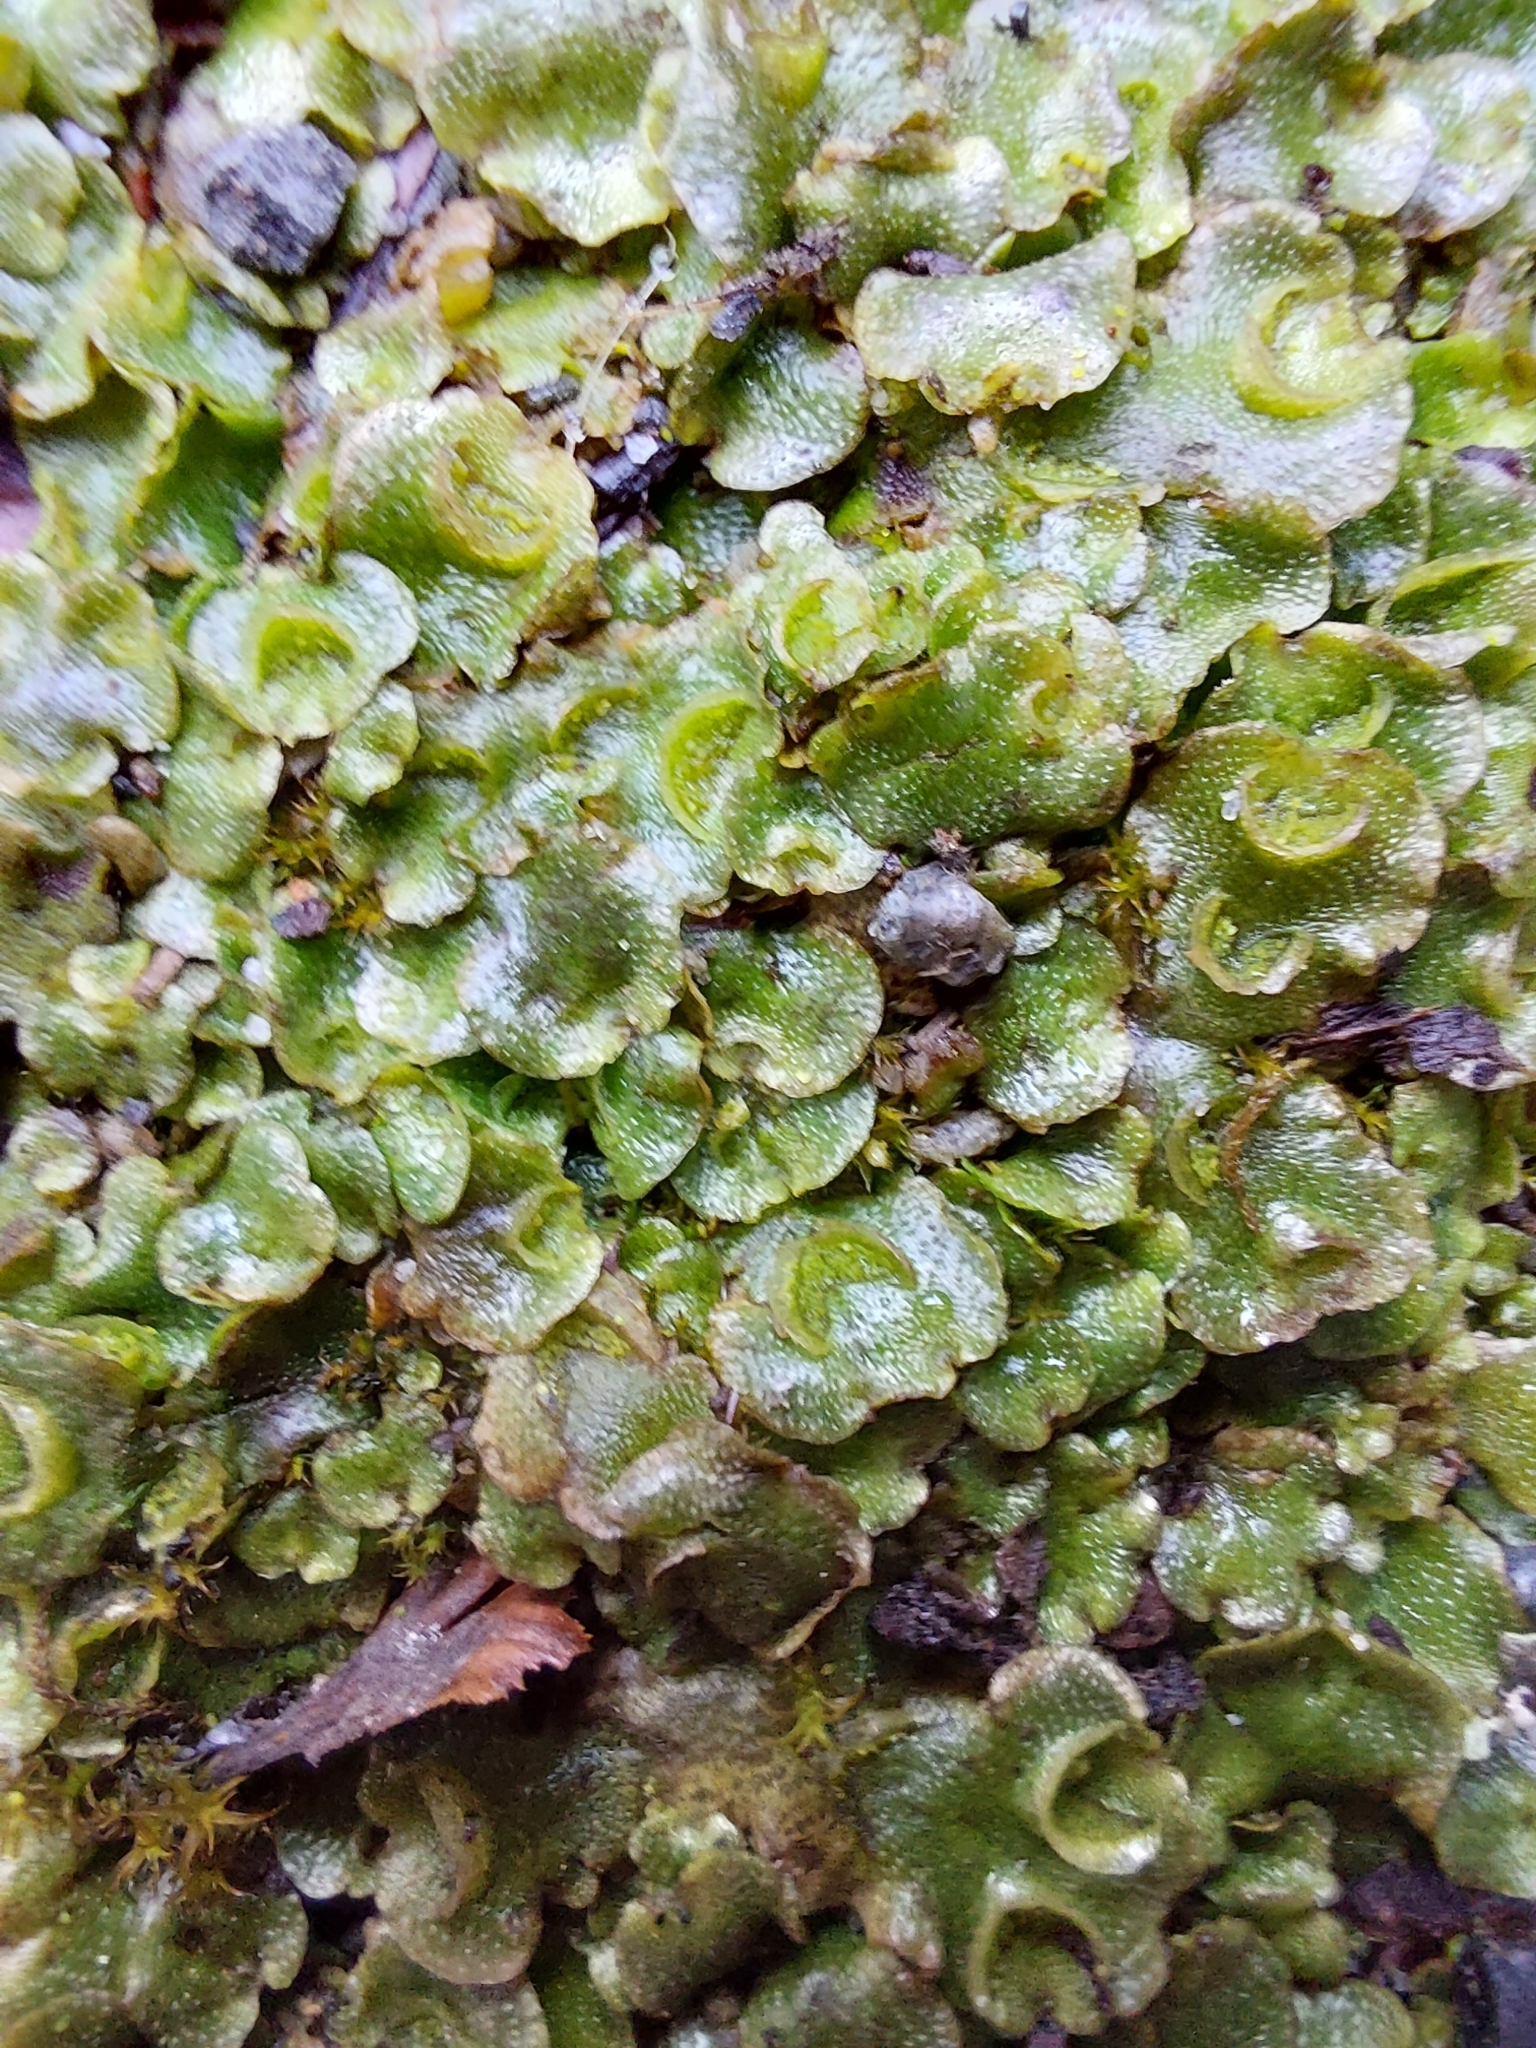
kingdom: Plantae
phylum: Marchantiophyta
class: Marchantiopsida
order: Lunulariales
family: Lunulariaceae
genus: Lunularia
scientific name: Lunularia cruciata
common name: Crescent-cup liverwort
